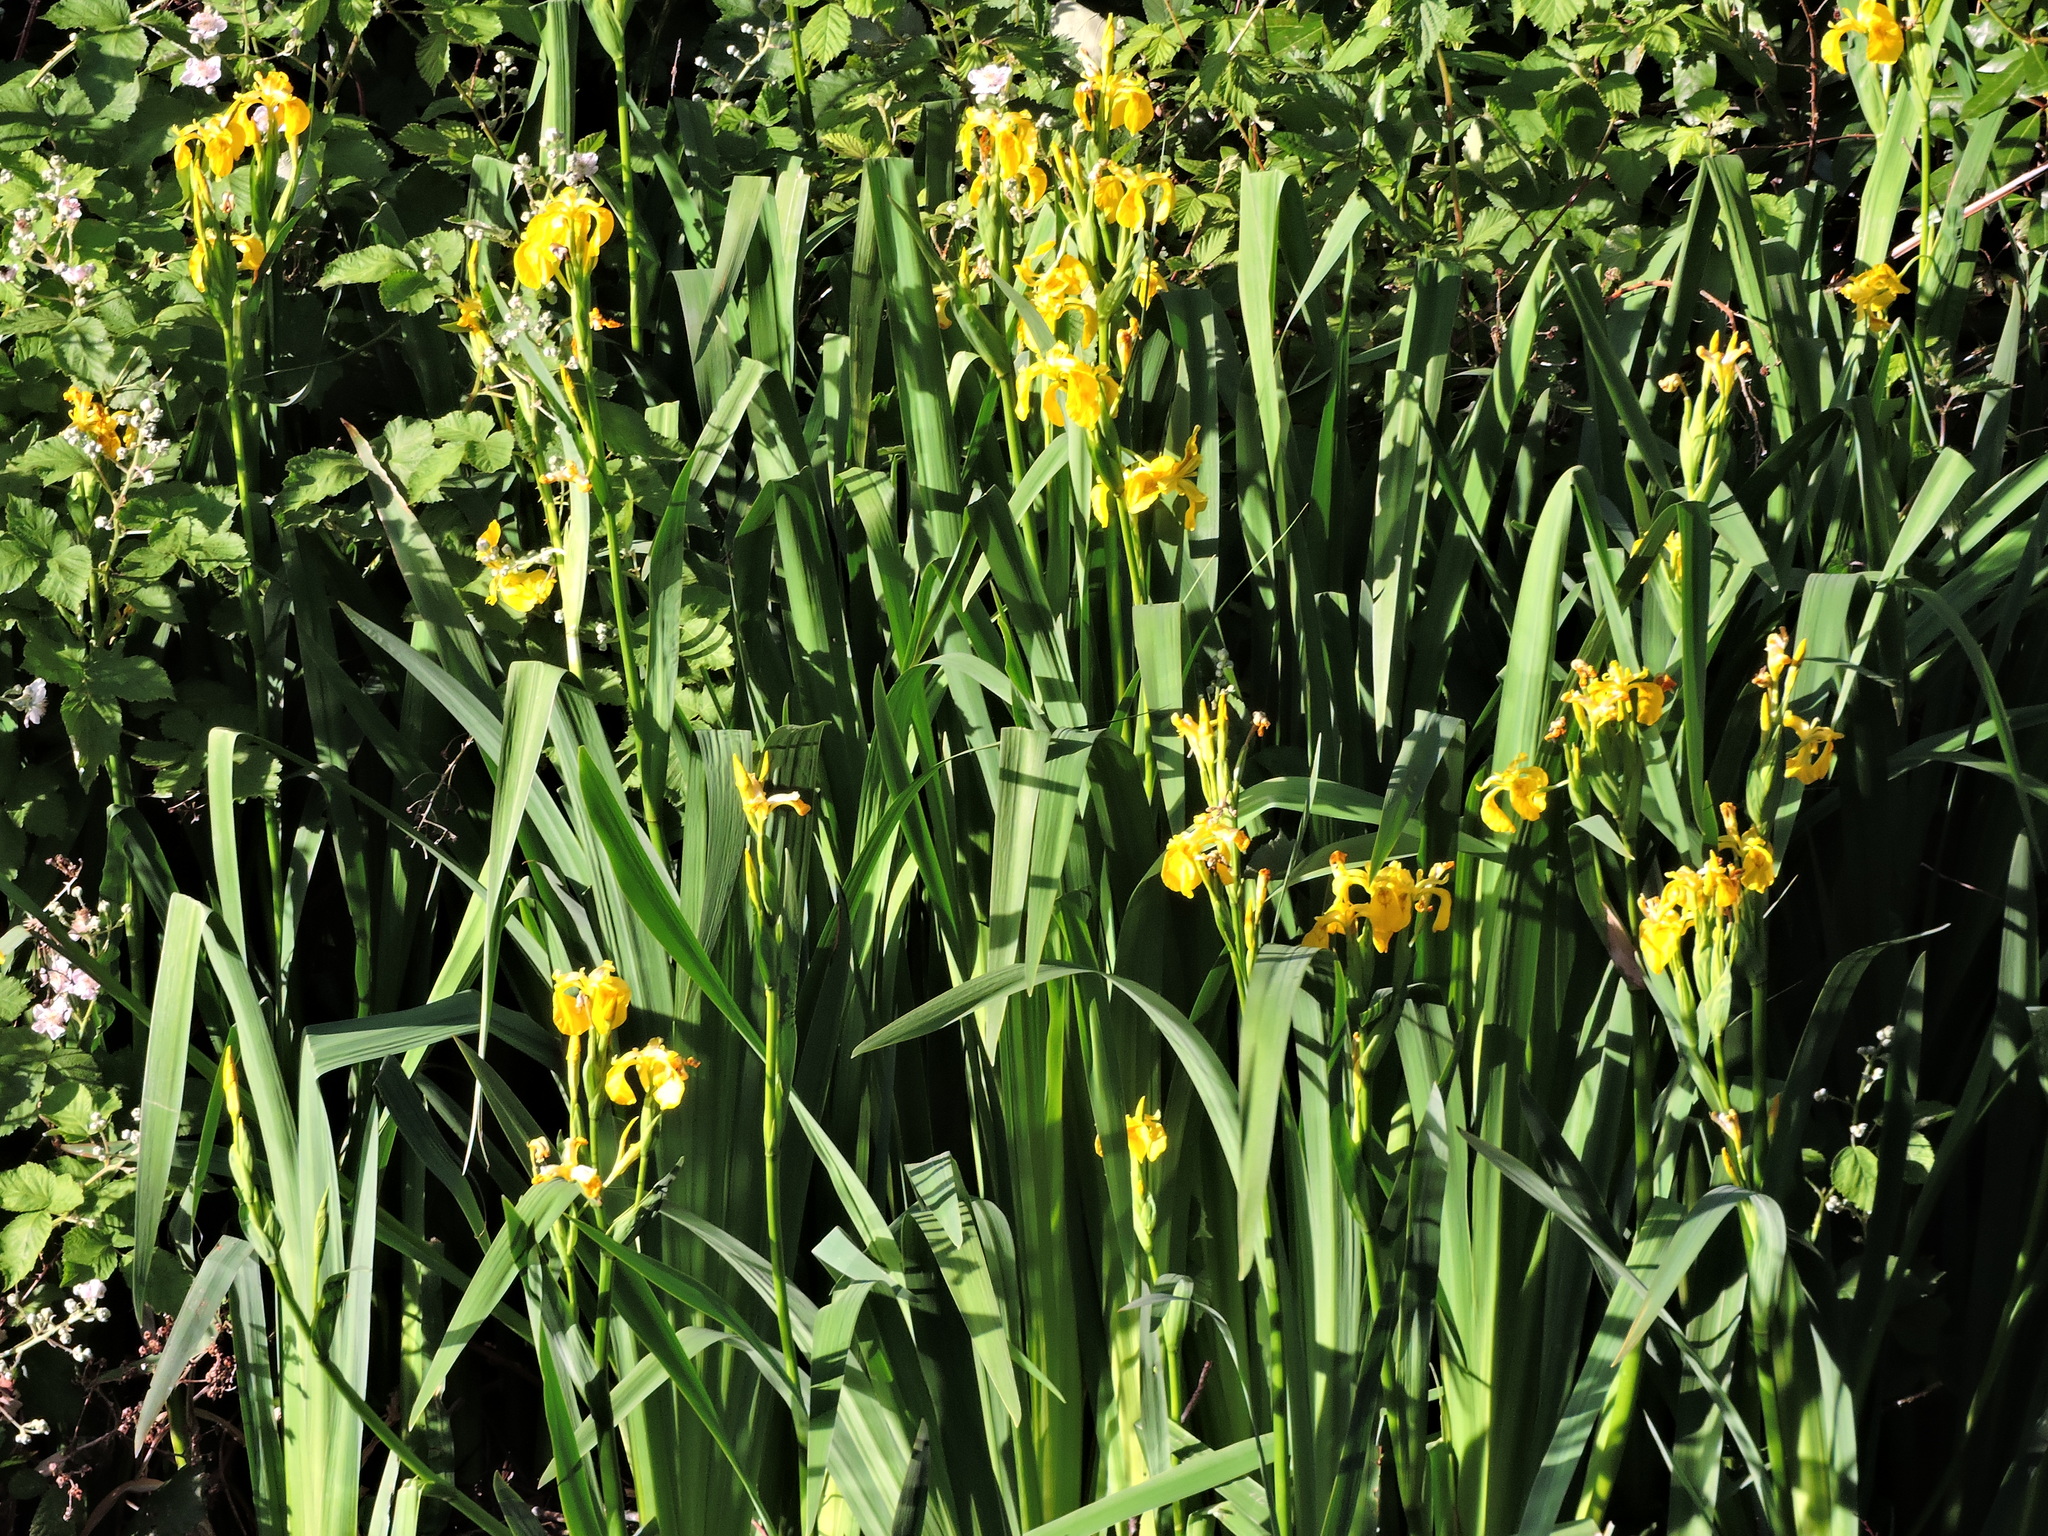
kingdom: Plantae
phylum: Tracheophyta
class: Liliopsida
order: Asparagales
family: Iridaceae
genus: Iris
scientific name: Iris pseudacorus
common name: Yellow flag
